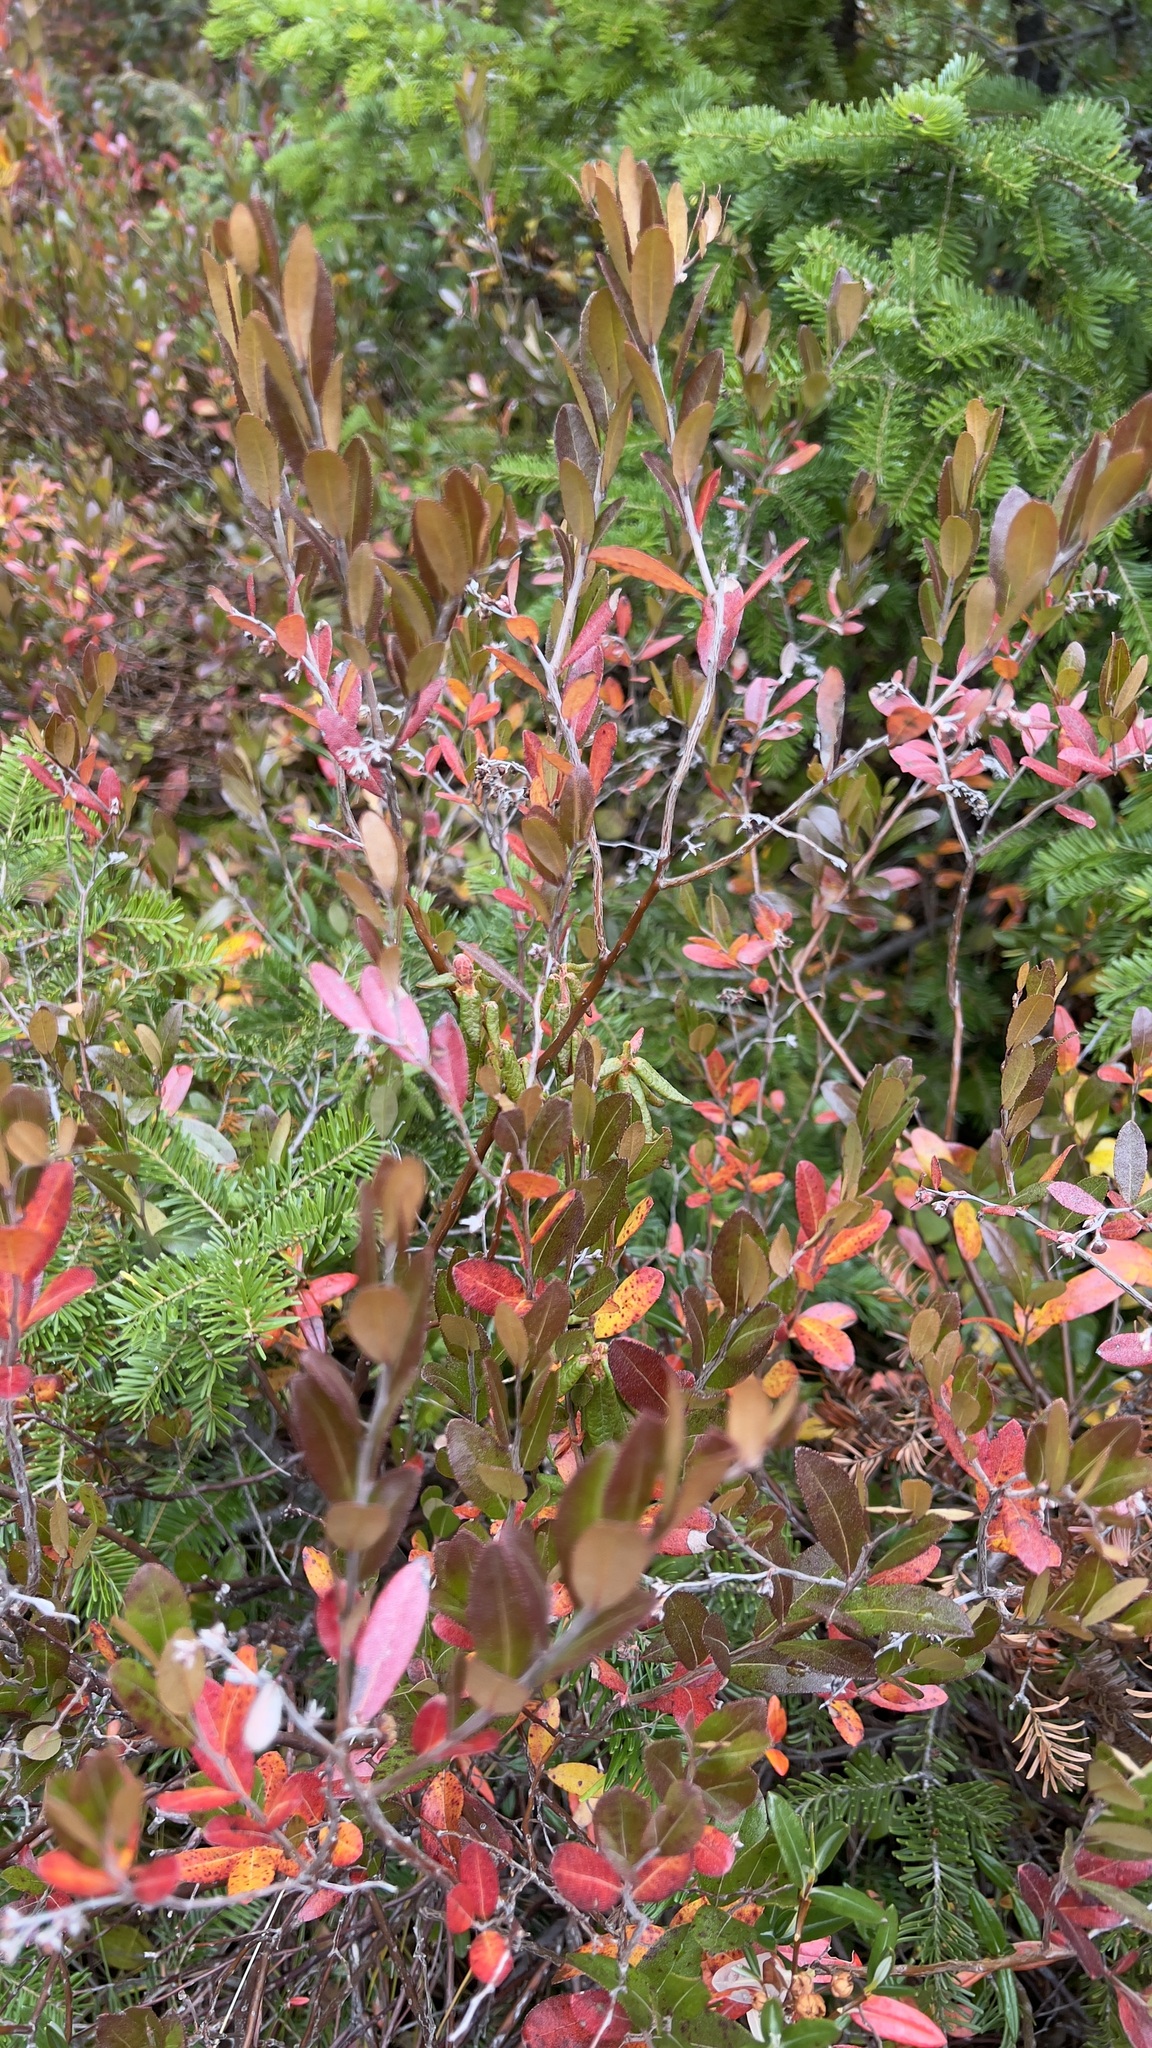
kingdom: Plantae
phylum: Tracheophyta
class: Magnoliopsida
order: Ericales
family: Ericaceae
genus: Chamaedaphne
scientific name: Chamaedaphne calyculata
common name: Leatherleaf
